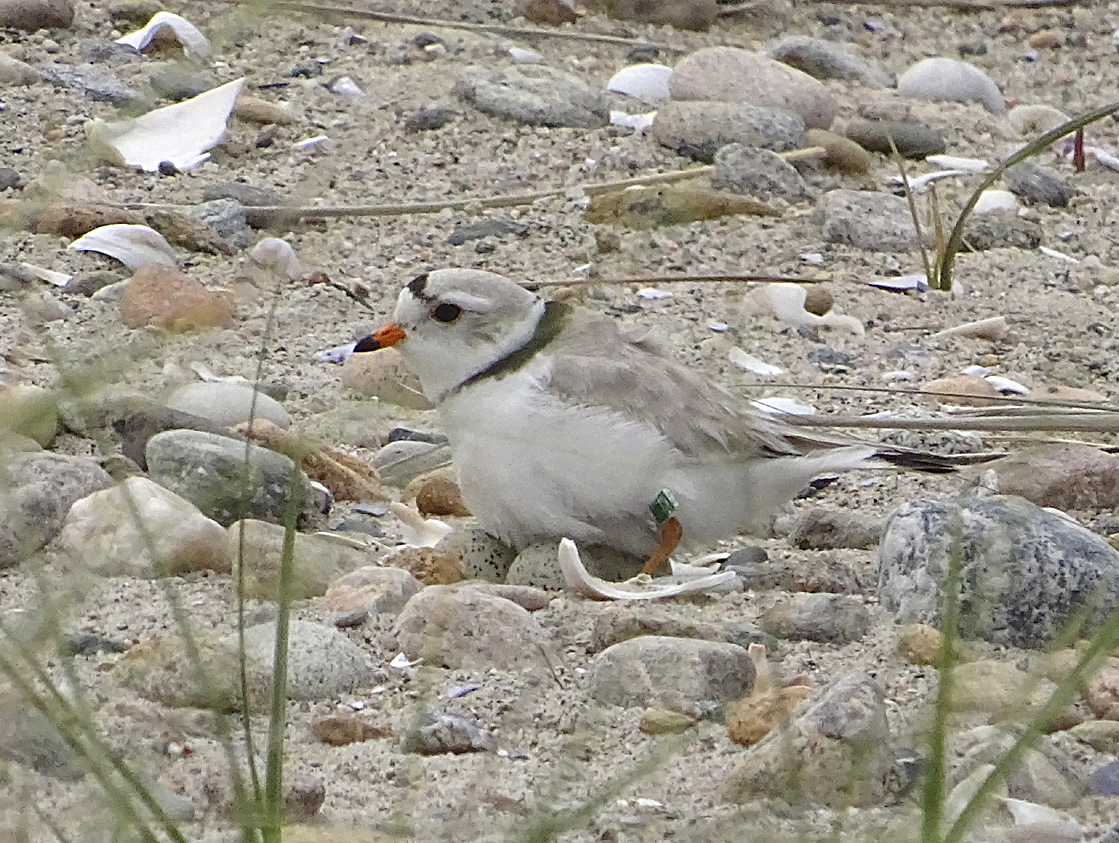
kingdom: Animalia
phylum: Chordata
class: Aves
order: Charadriiformes
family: Charadriidae
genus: Charadrius
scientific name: Charadrius melodus
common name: Piping plover
